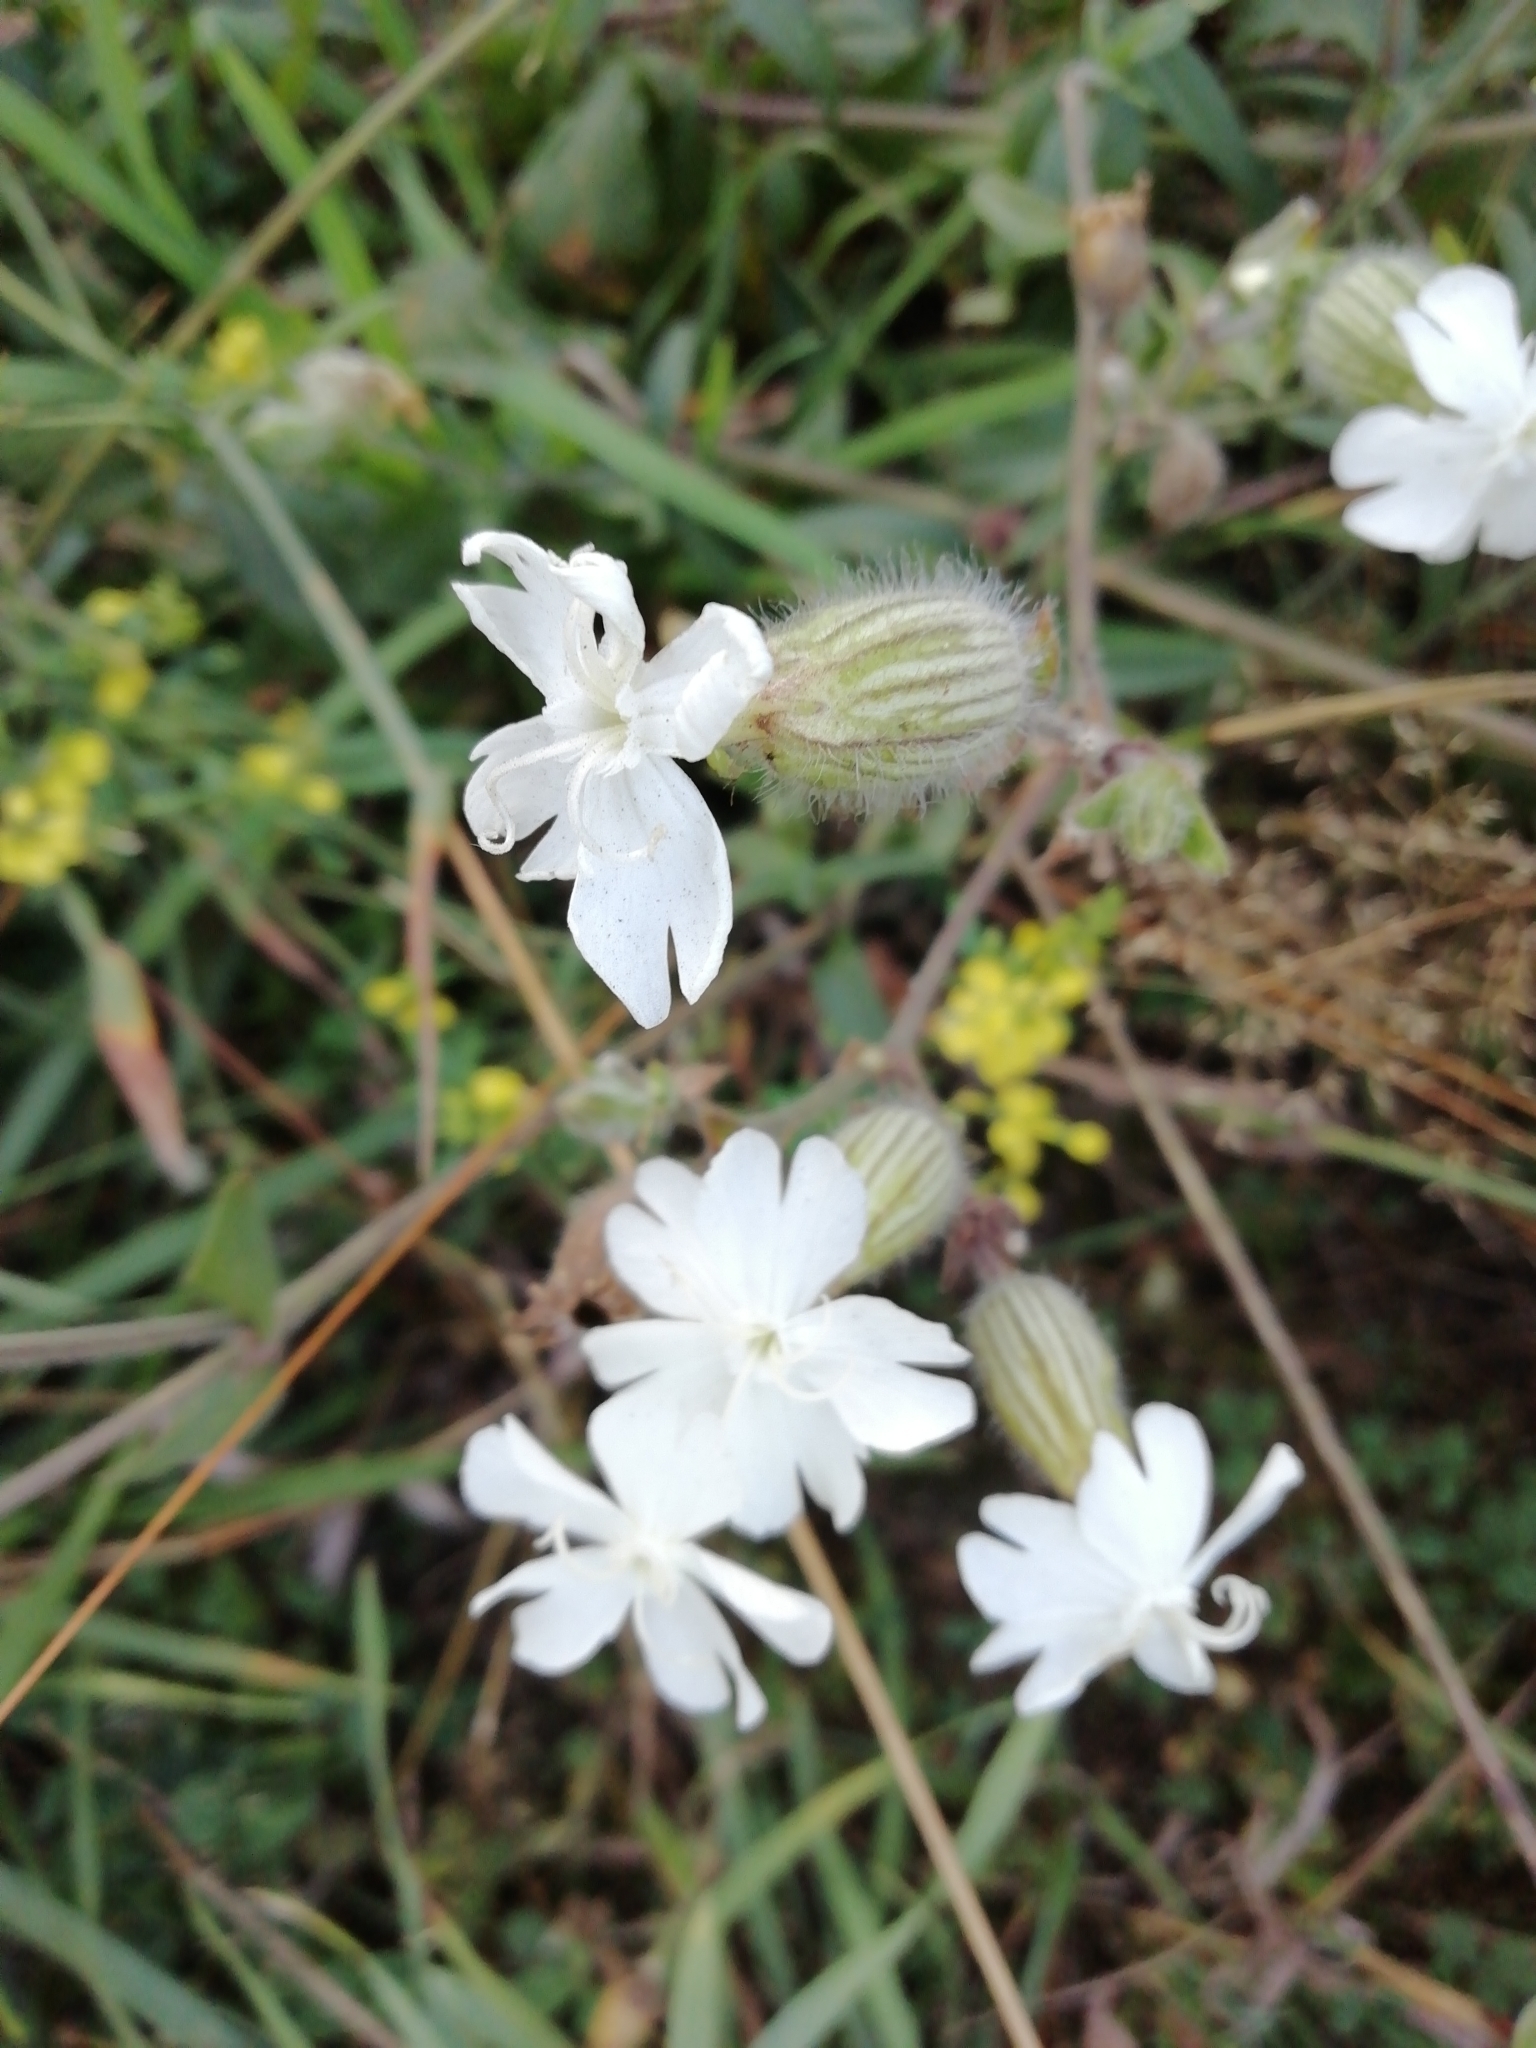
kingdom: Plantae
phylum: Tracheophyta
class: Magnoliopsida
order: Caryophyllales
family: Caryophyllaceae
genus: Silene
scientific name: Silene latifolia
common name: White campion
